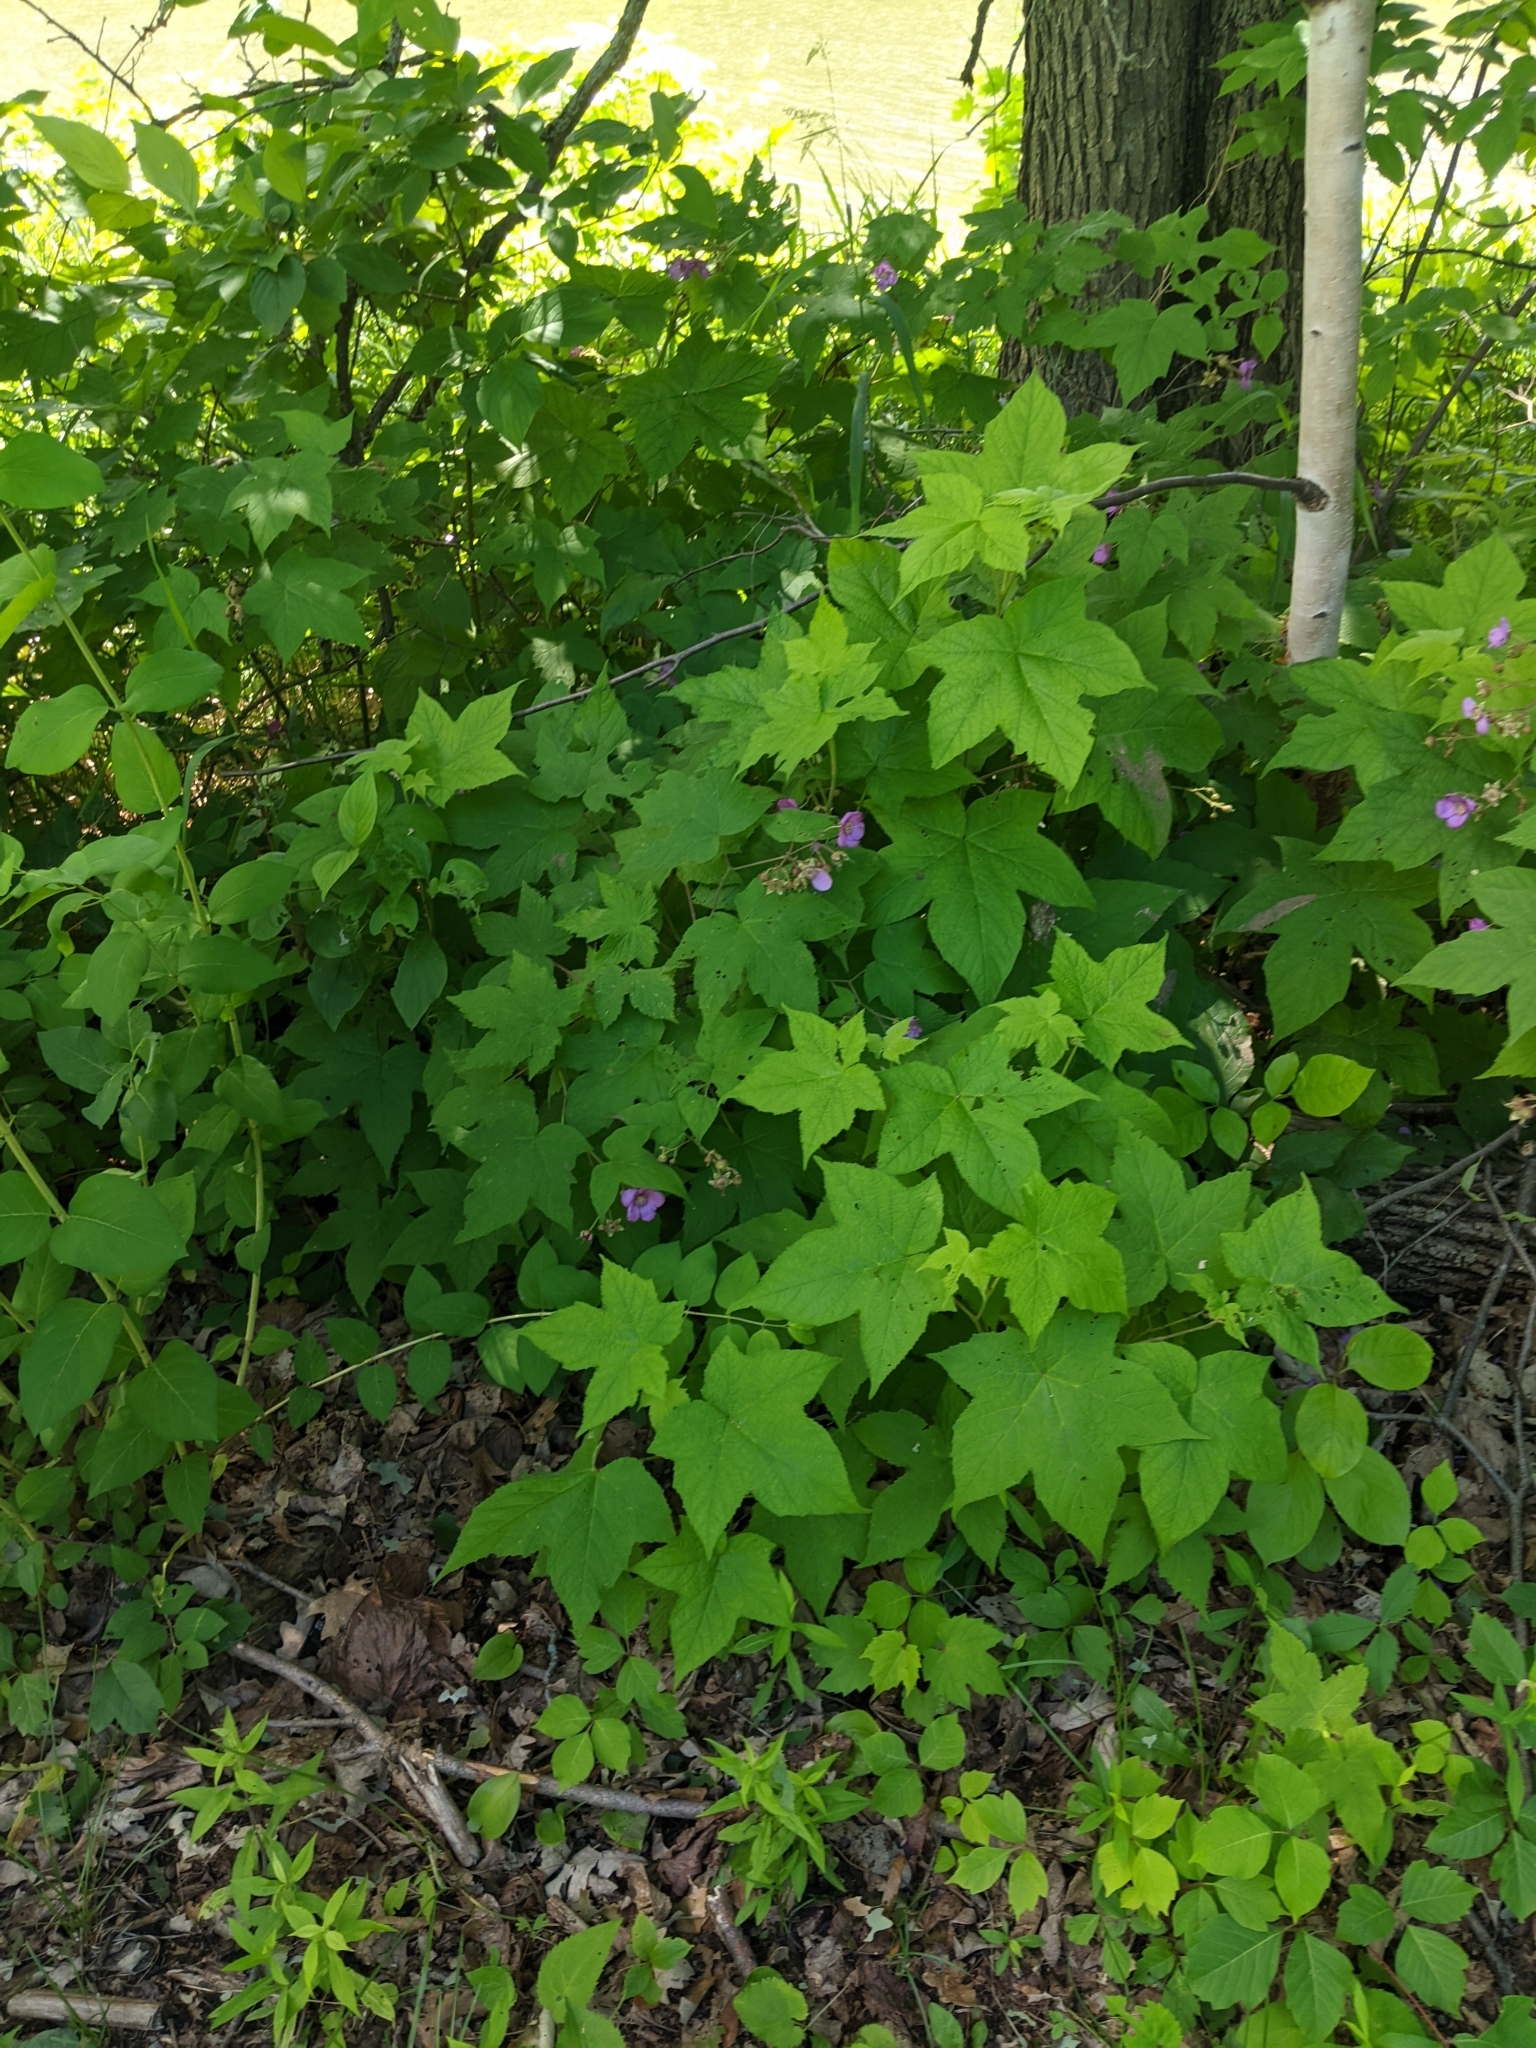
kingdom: Plantae
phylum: Tracheophyta
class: Magnoliopsida
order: Rosales
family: Rosaceae
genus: Rubus
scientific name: Rubus odoratus
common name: Purple-flowered raspberry
